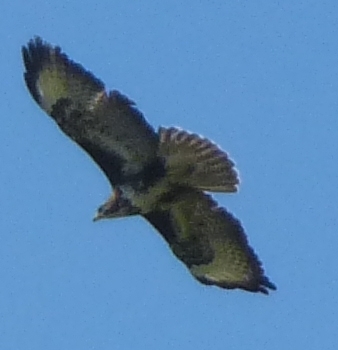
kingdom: Animalia
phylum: Chordata
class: Aves
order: Accipitriformes
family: Accipitridae
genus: Buteo
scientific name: Buteo buteo
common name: Common buzzard
